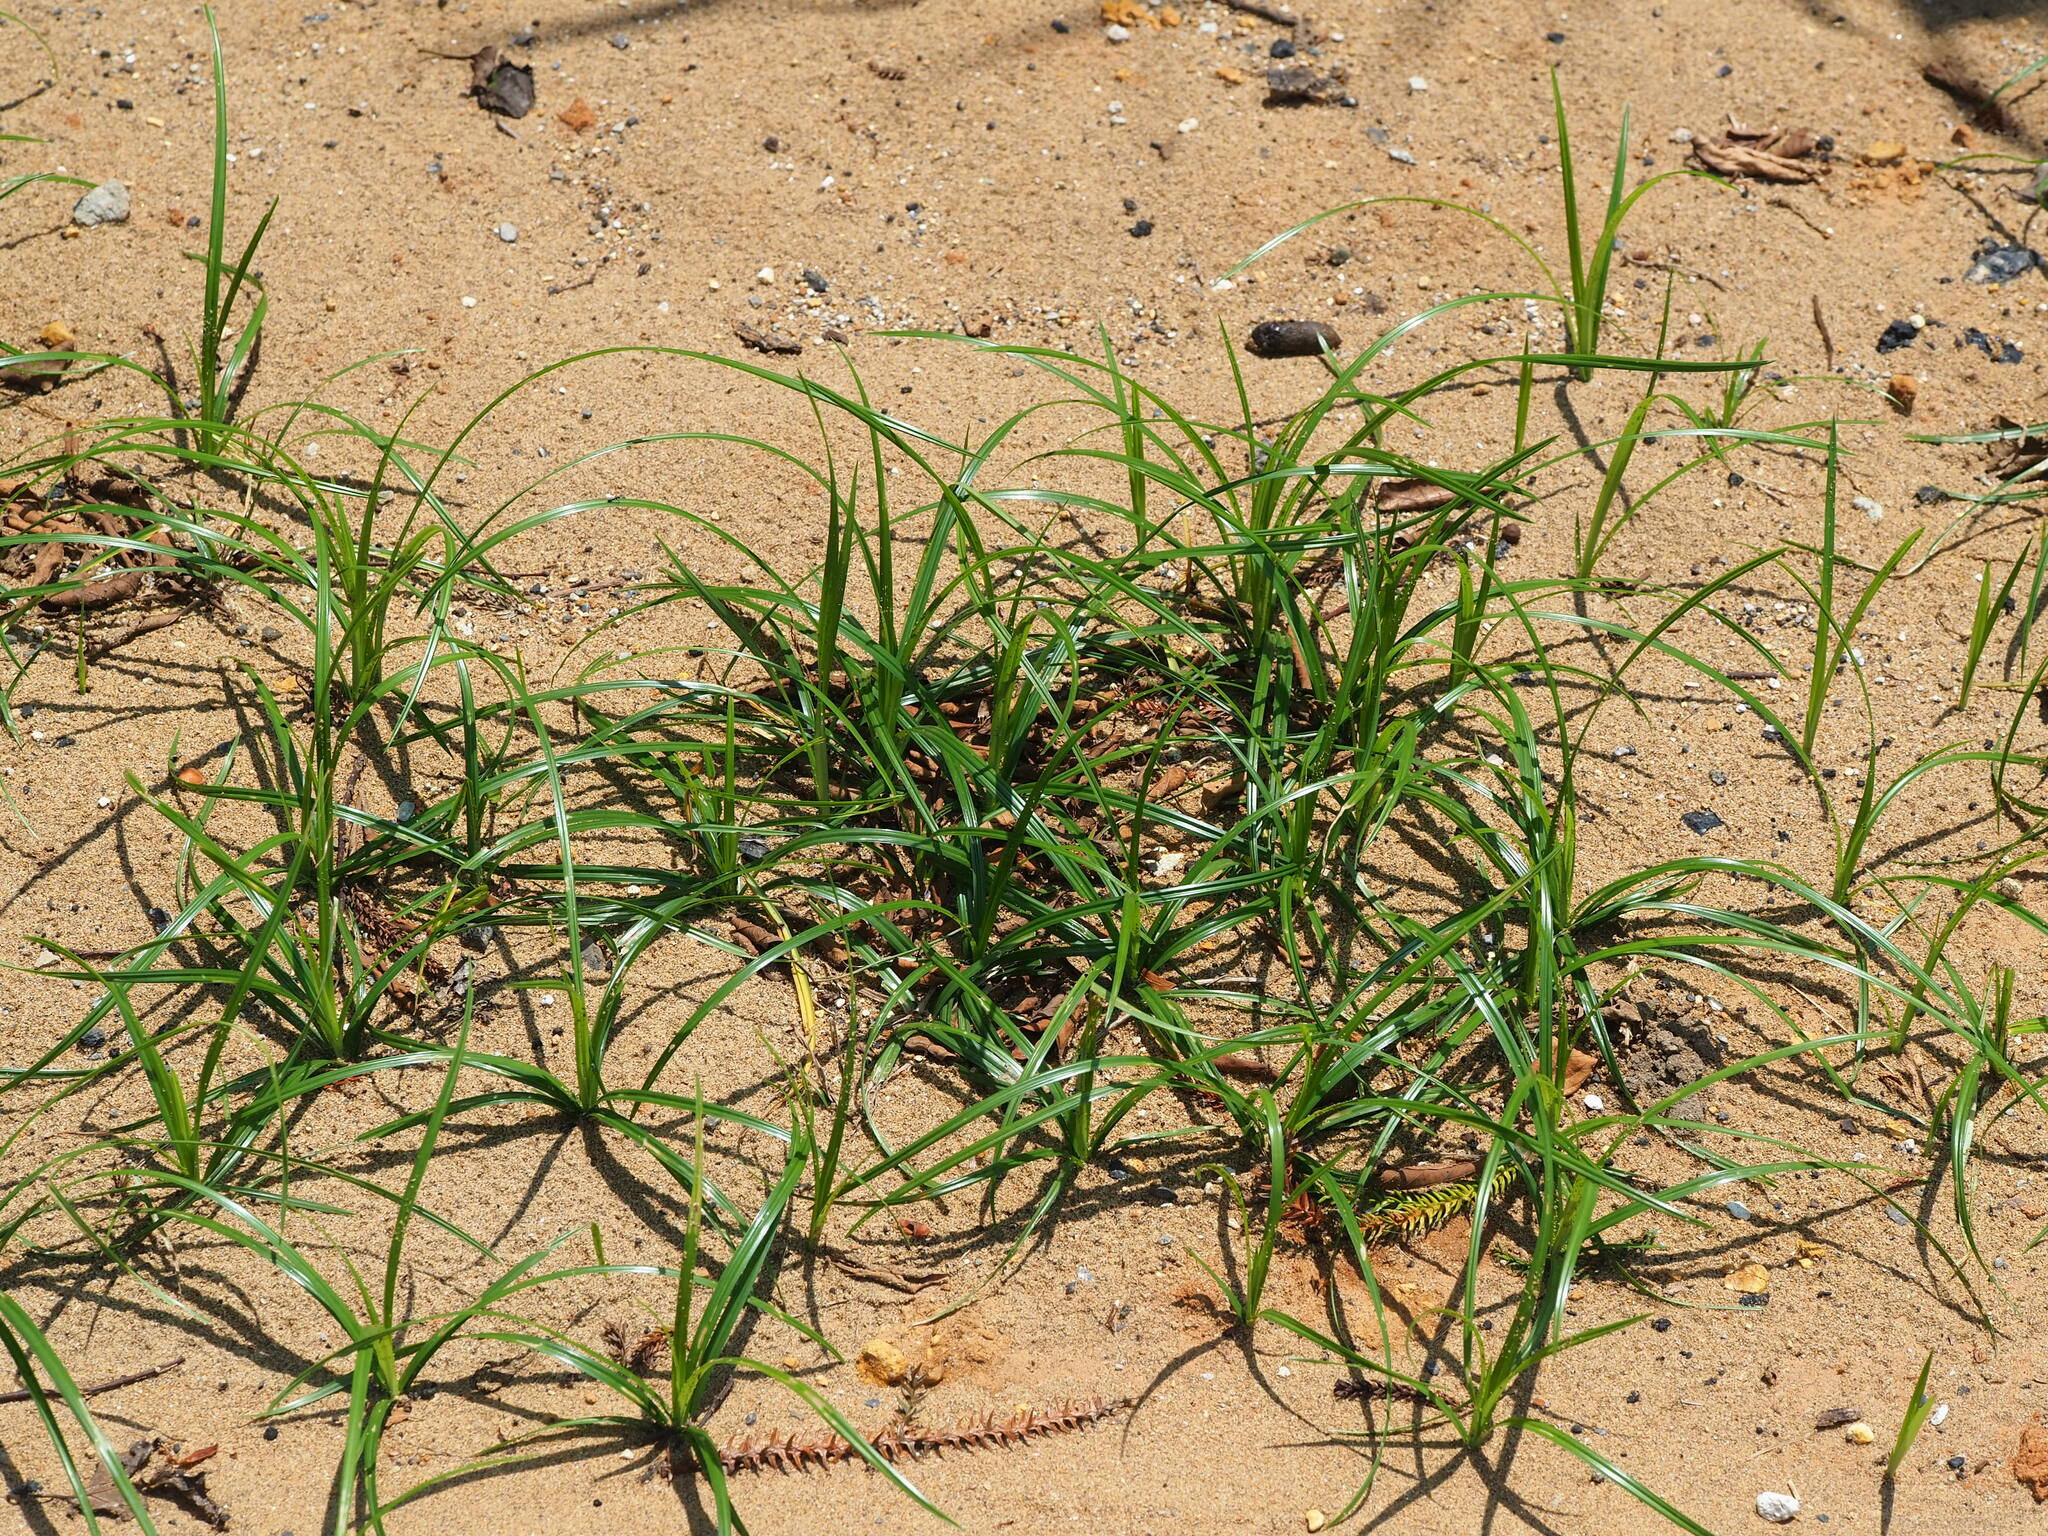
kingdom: Plantae
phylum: Tracheophyta
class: Liliopsida
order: Poales
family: Cyperaceae
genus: Cyperus
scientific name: Cyperus rotundus
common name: Nutgrass
